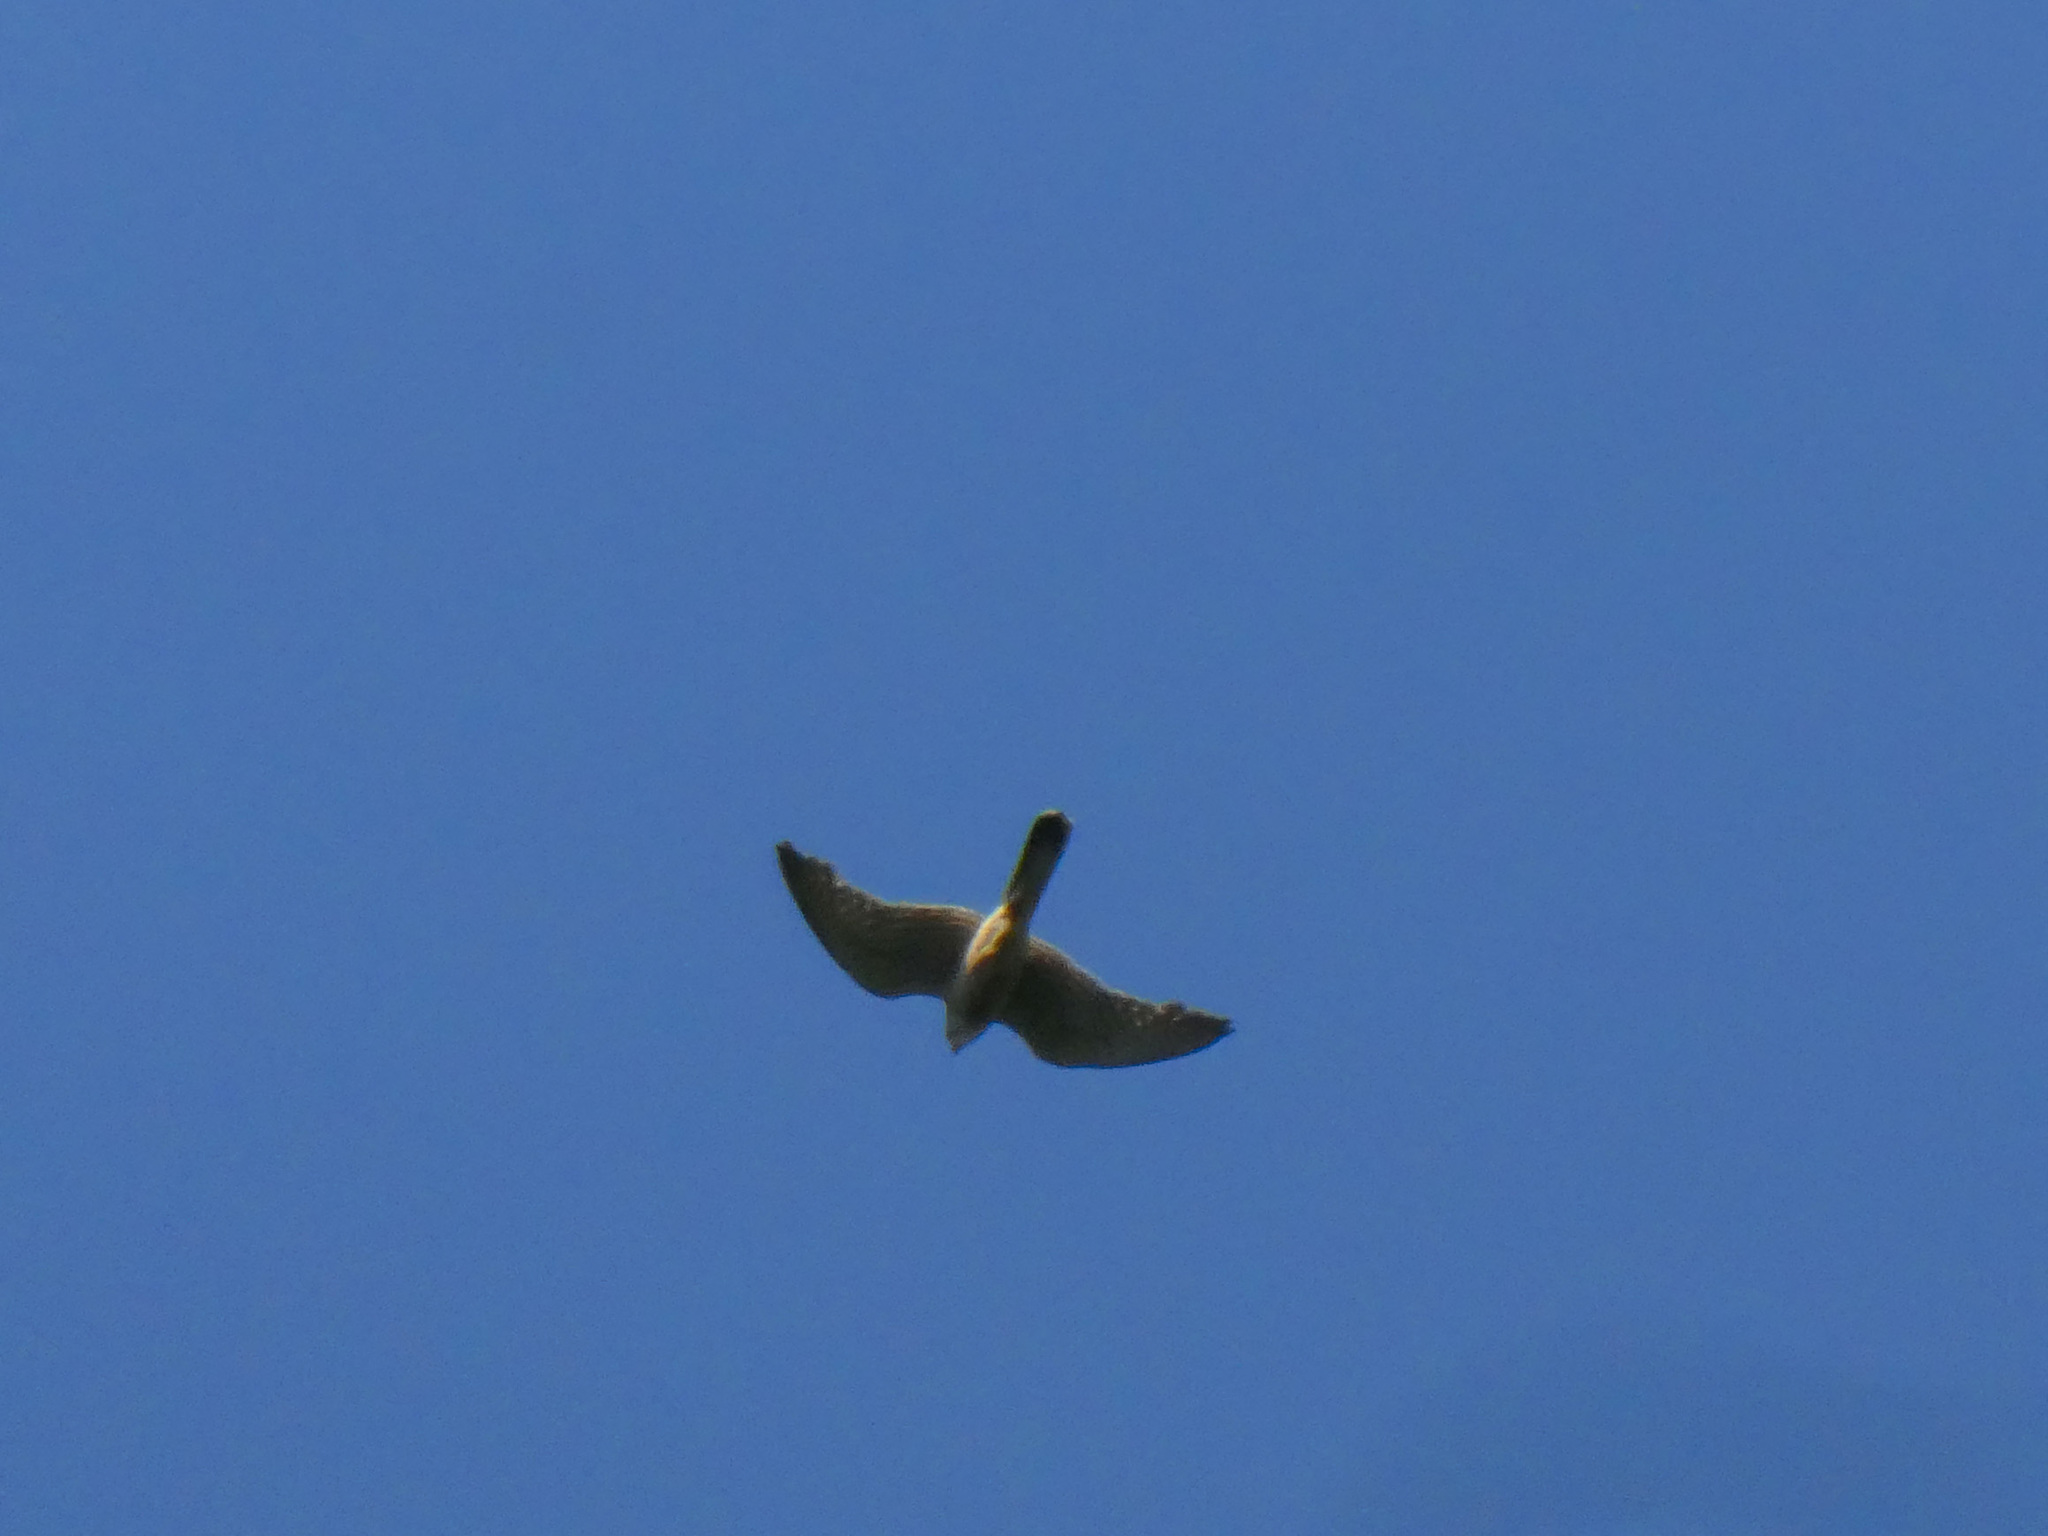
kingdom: Animalia
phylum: Chordata
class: Aves
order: Falconiformes
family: Falconidae
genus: Falco
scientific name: Falco tinnunculus
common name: Common kestrel
